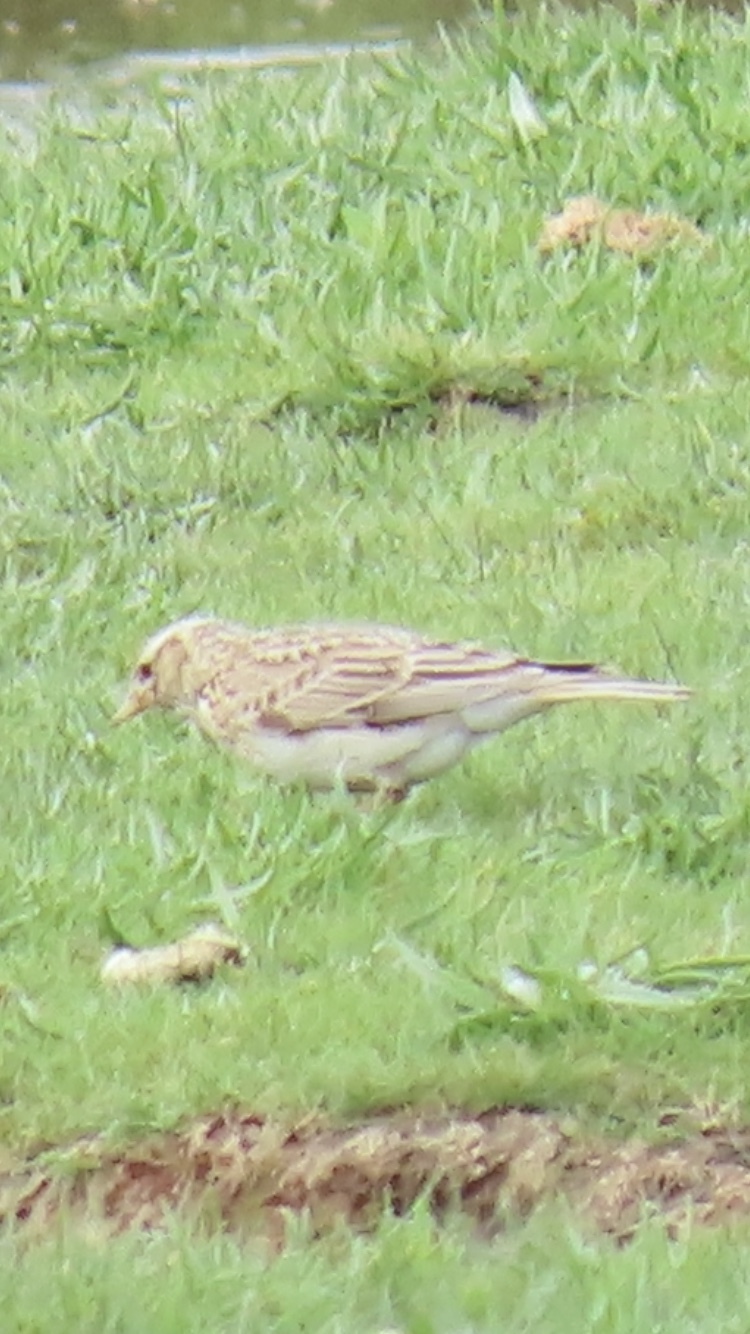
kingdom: Animalia
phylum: Chordata
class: Aves
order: Passeriformes
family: Alaudidae
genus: Alauda
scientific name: Alauda arvensis
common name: Eurasian skylark
